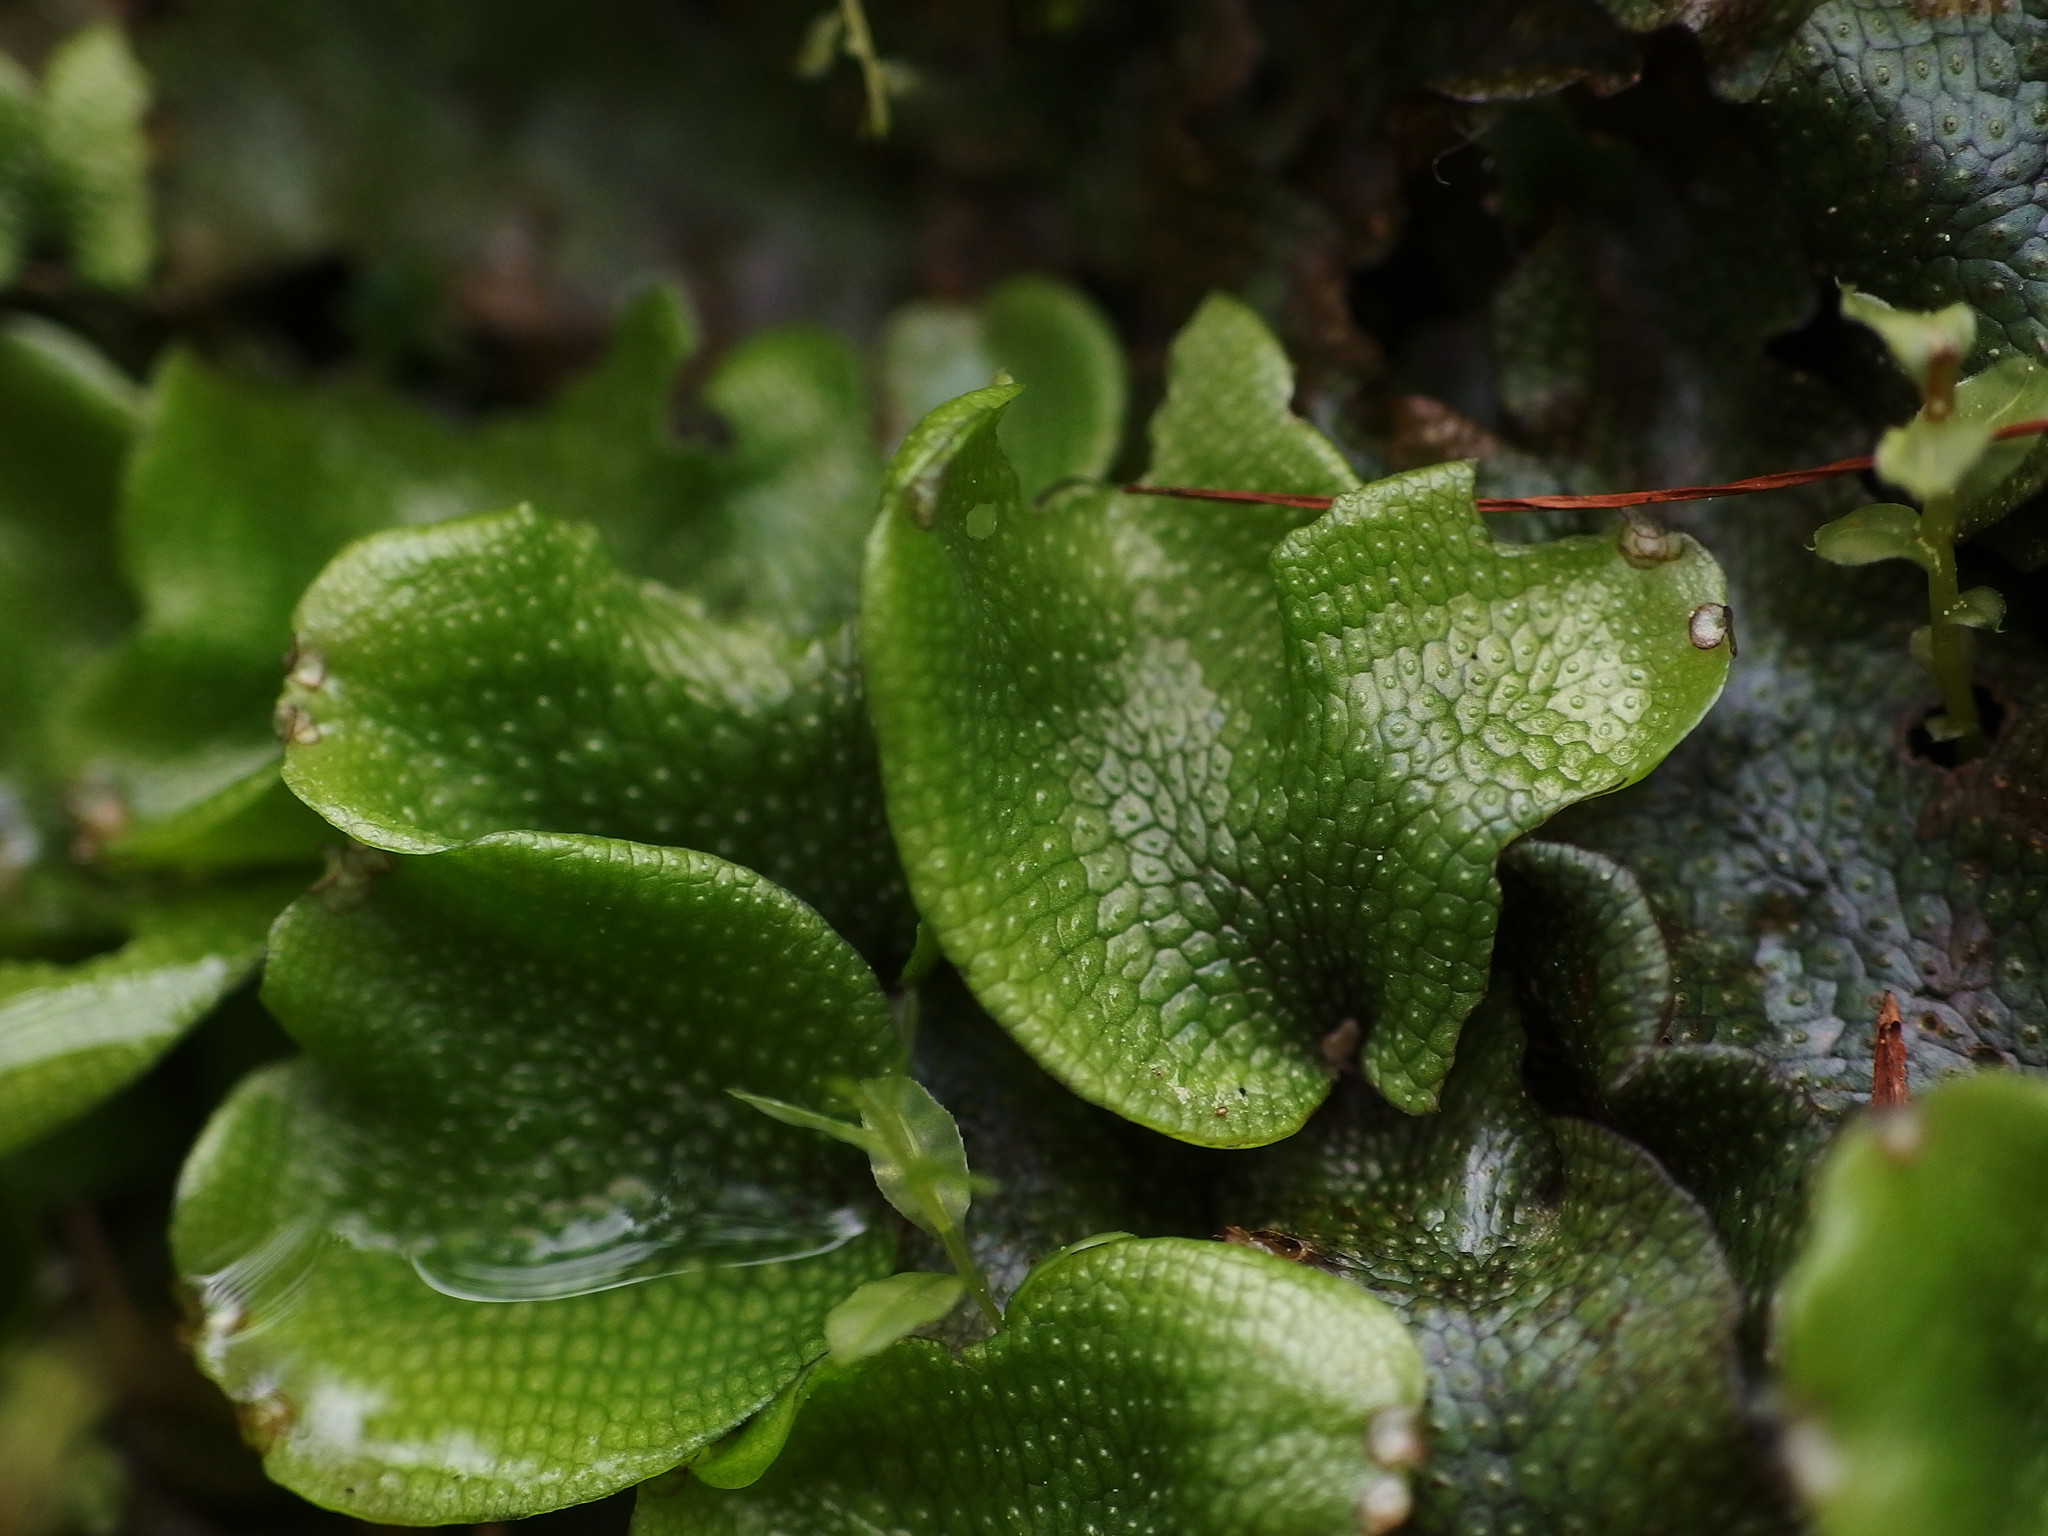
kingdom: Plantae
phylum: Marchantiophyta
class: Marchantiopsida
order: Marchantiales
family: Conocephalaceae
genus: Conocephalum
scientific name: Conocephalum conicum
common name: Great scented liverwort
